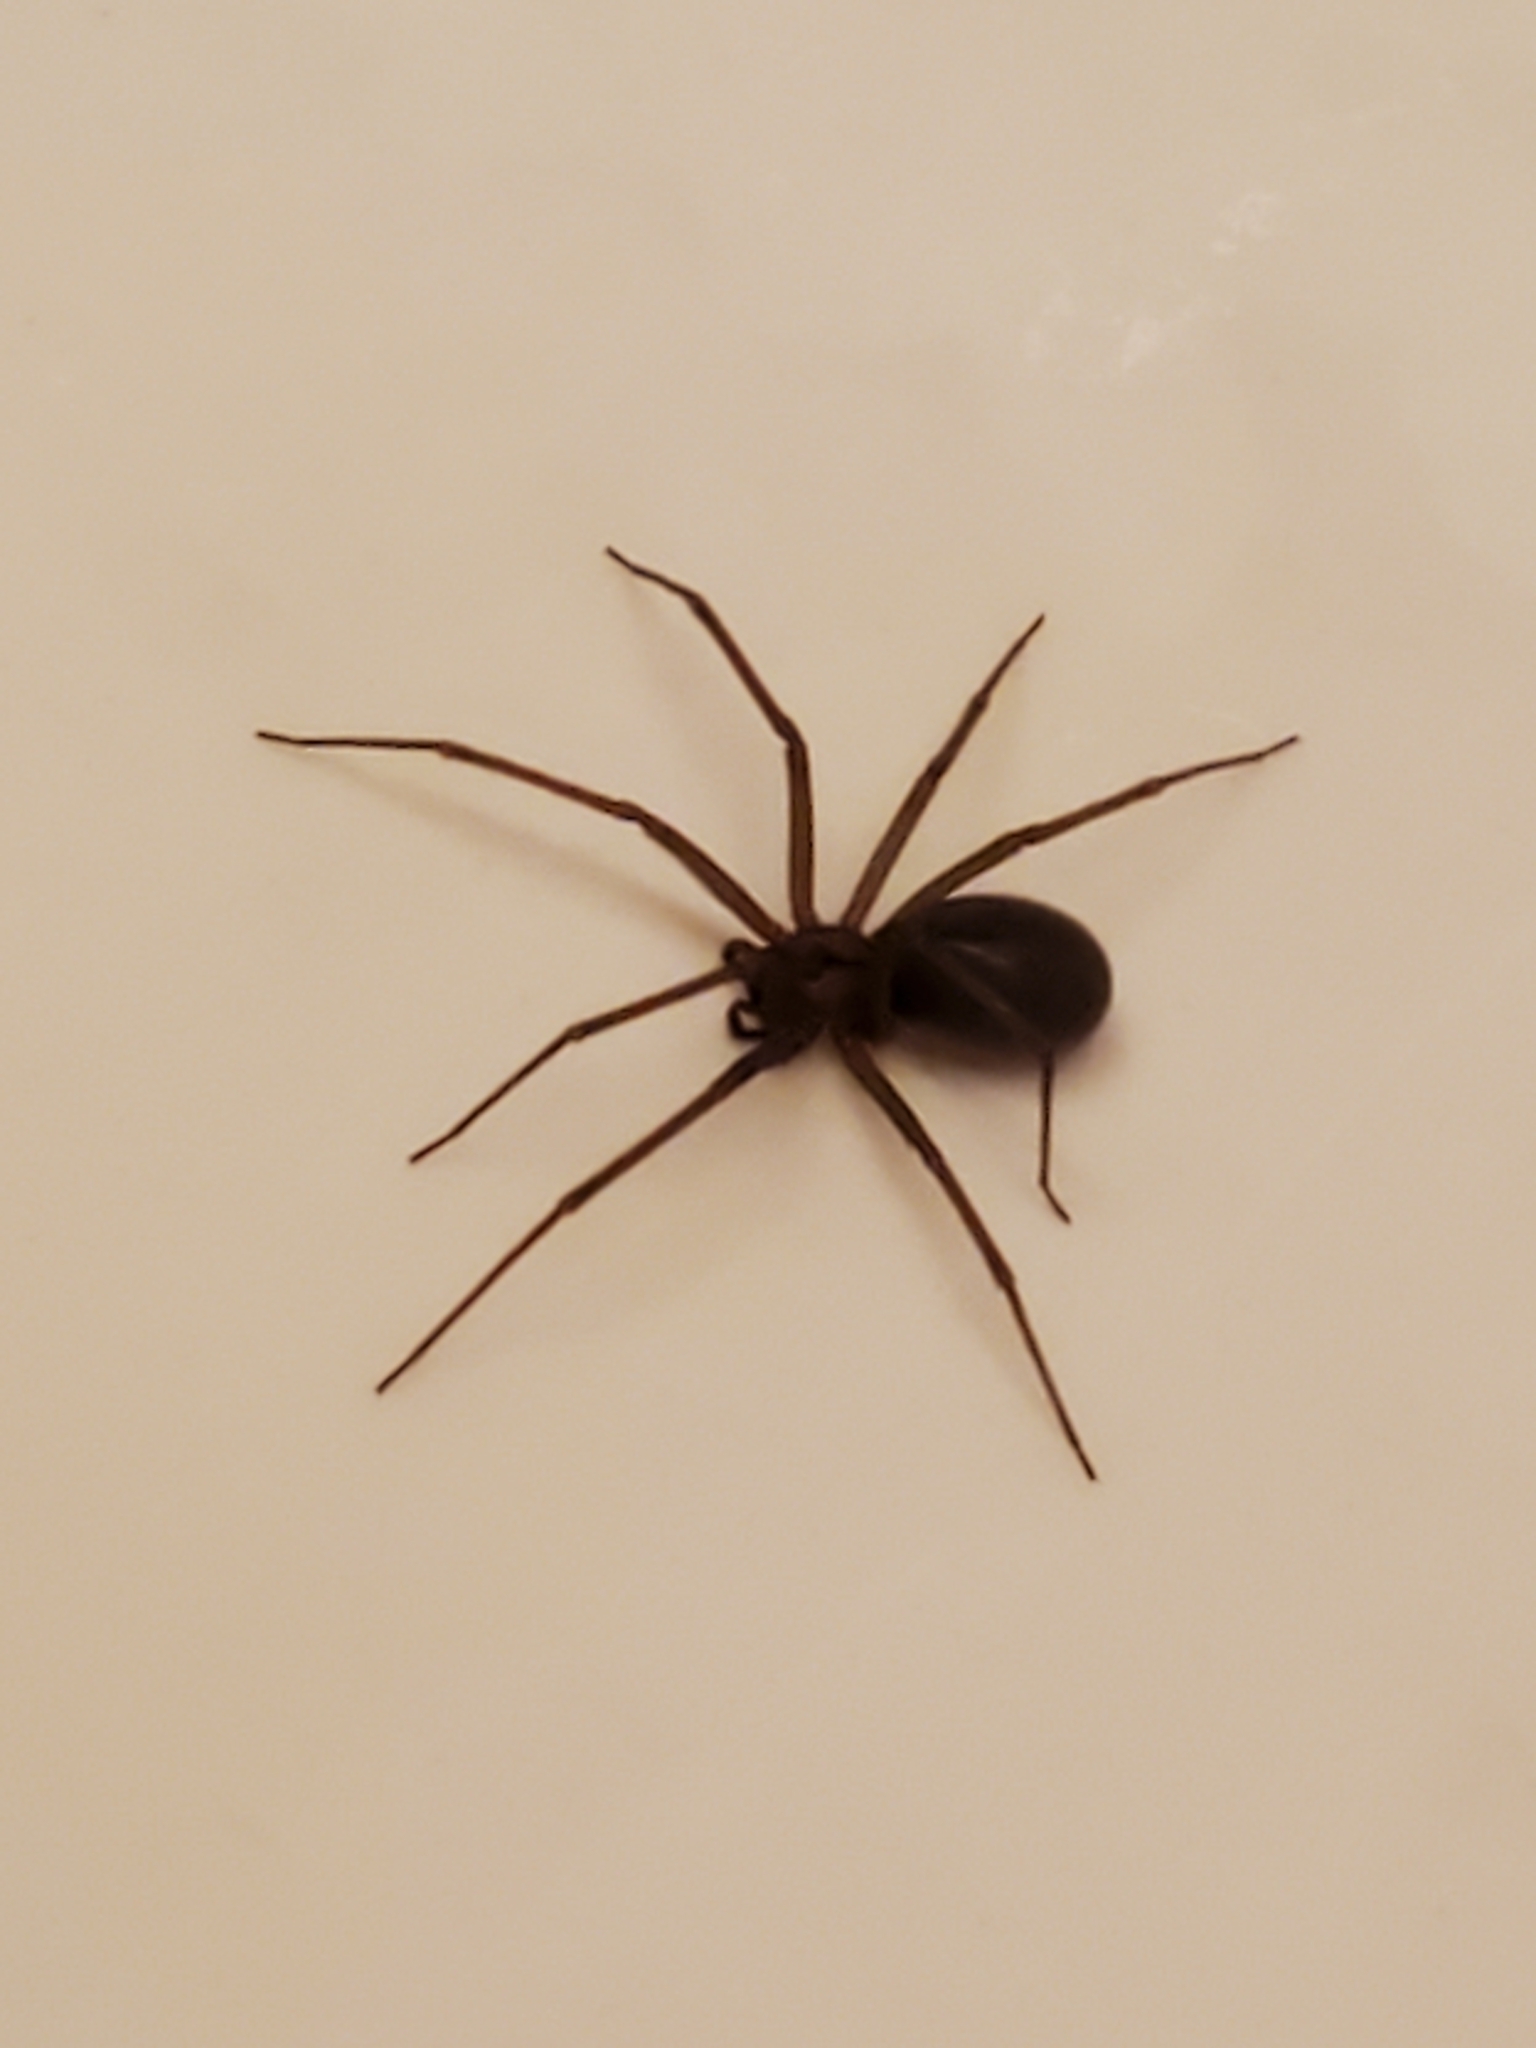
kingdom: Animalia
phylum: Arthropoda
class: Arachnida
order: Araneae
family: Sicariidae
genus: Loxosceles
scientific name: Loxosceles reclusa
